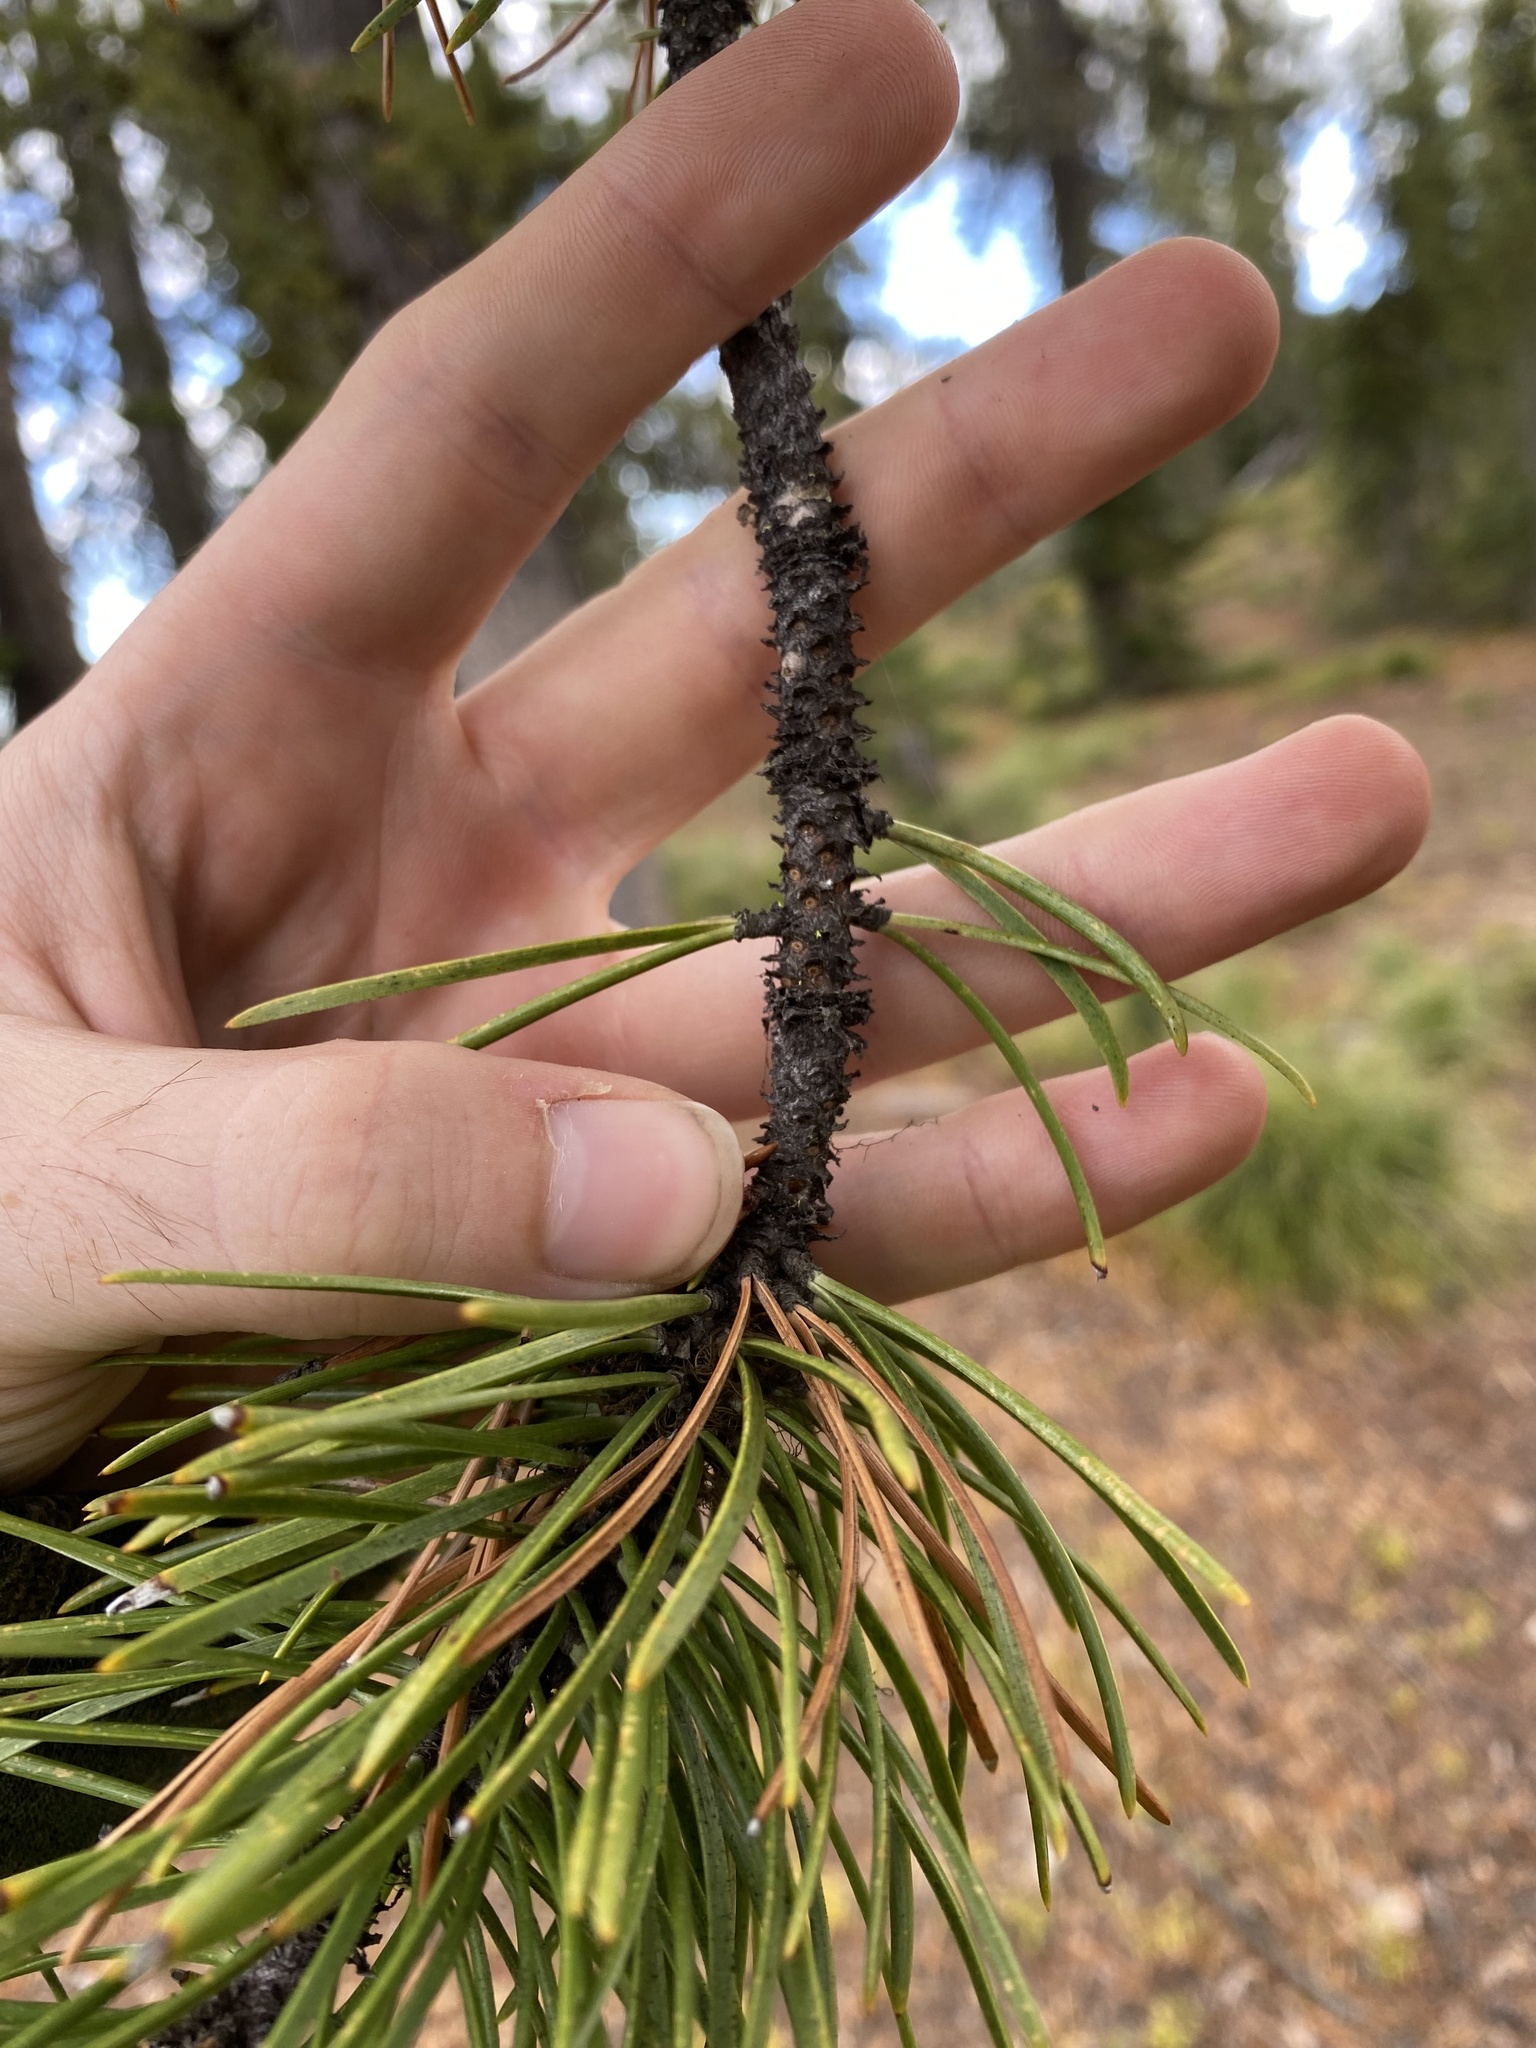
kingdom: Plantae
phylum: Tracheophyta
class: Pinopsida
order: Pinales
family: Pinaceae
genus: Pinus
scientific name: Pinus contorta
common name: Lodgepole pine
